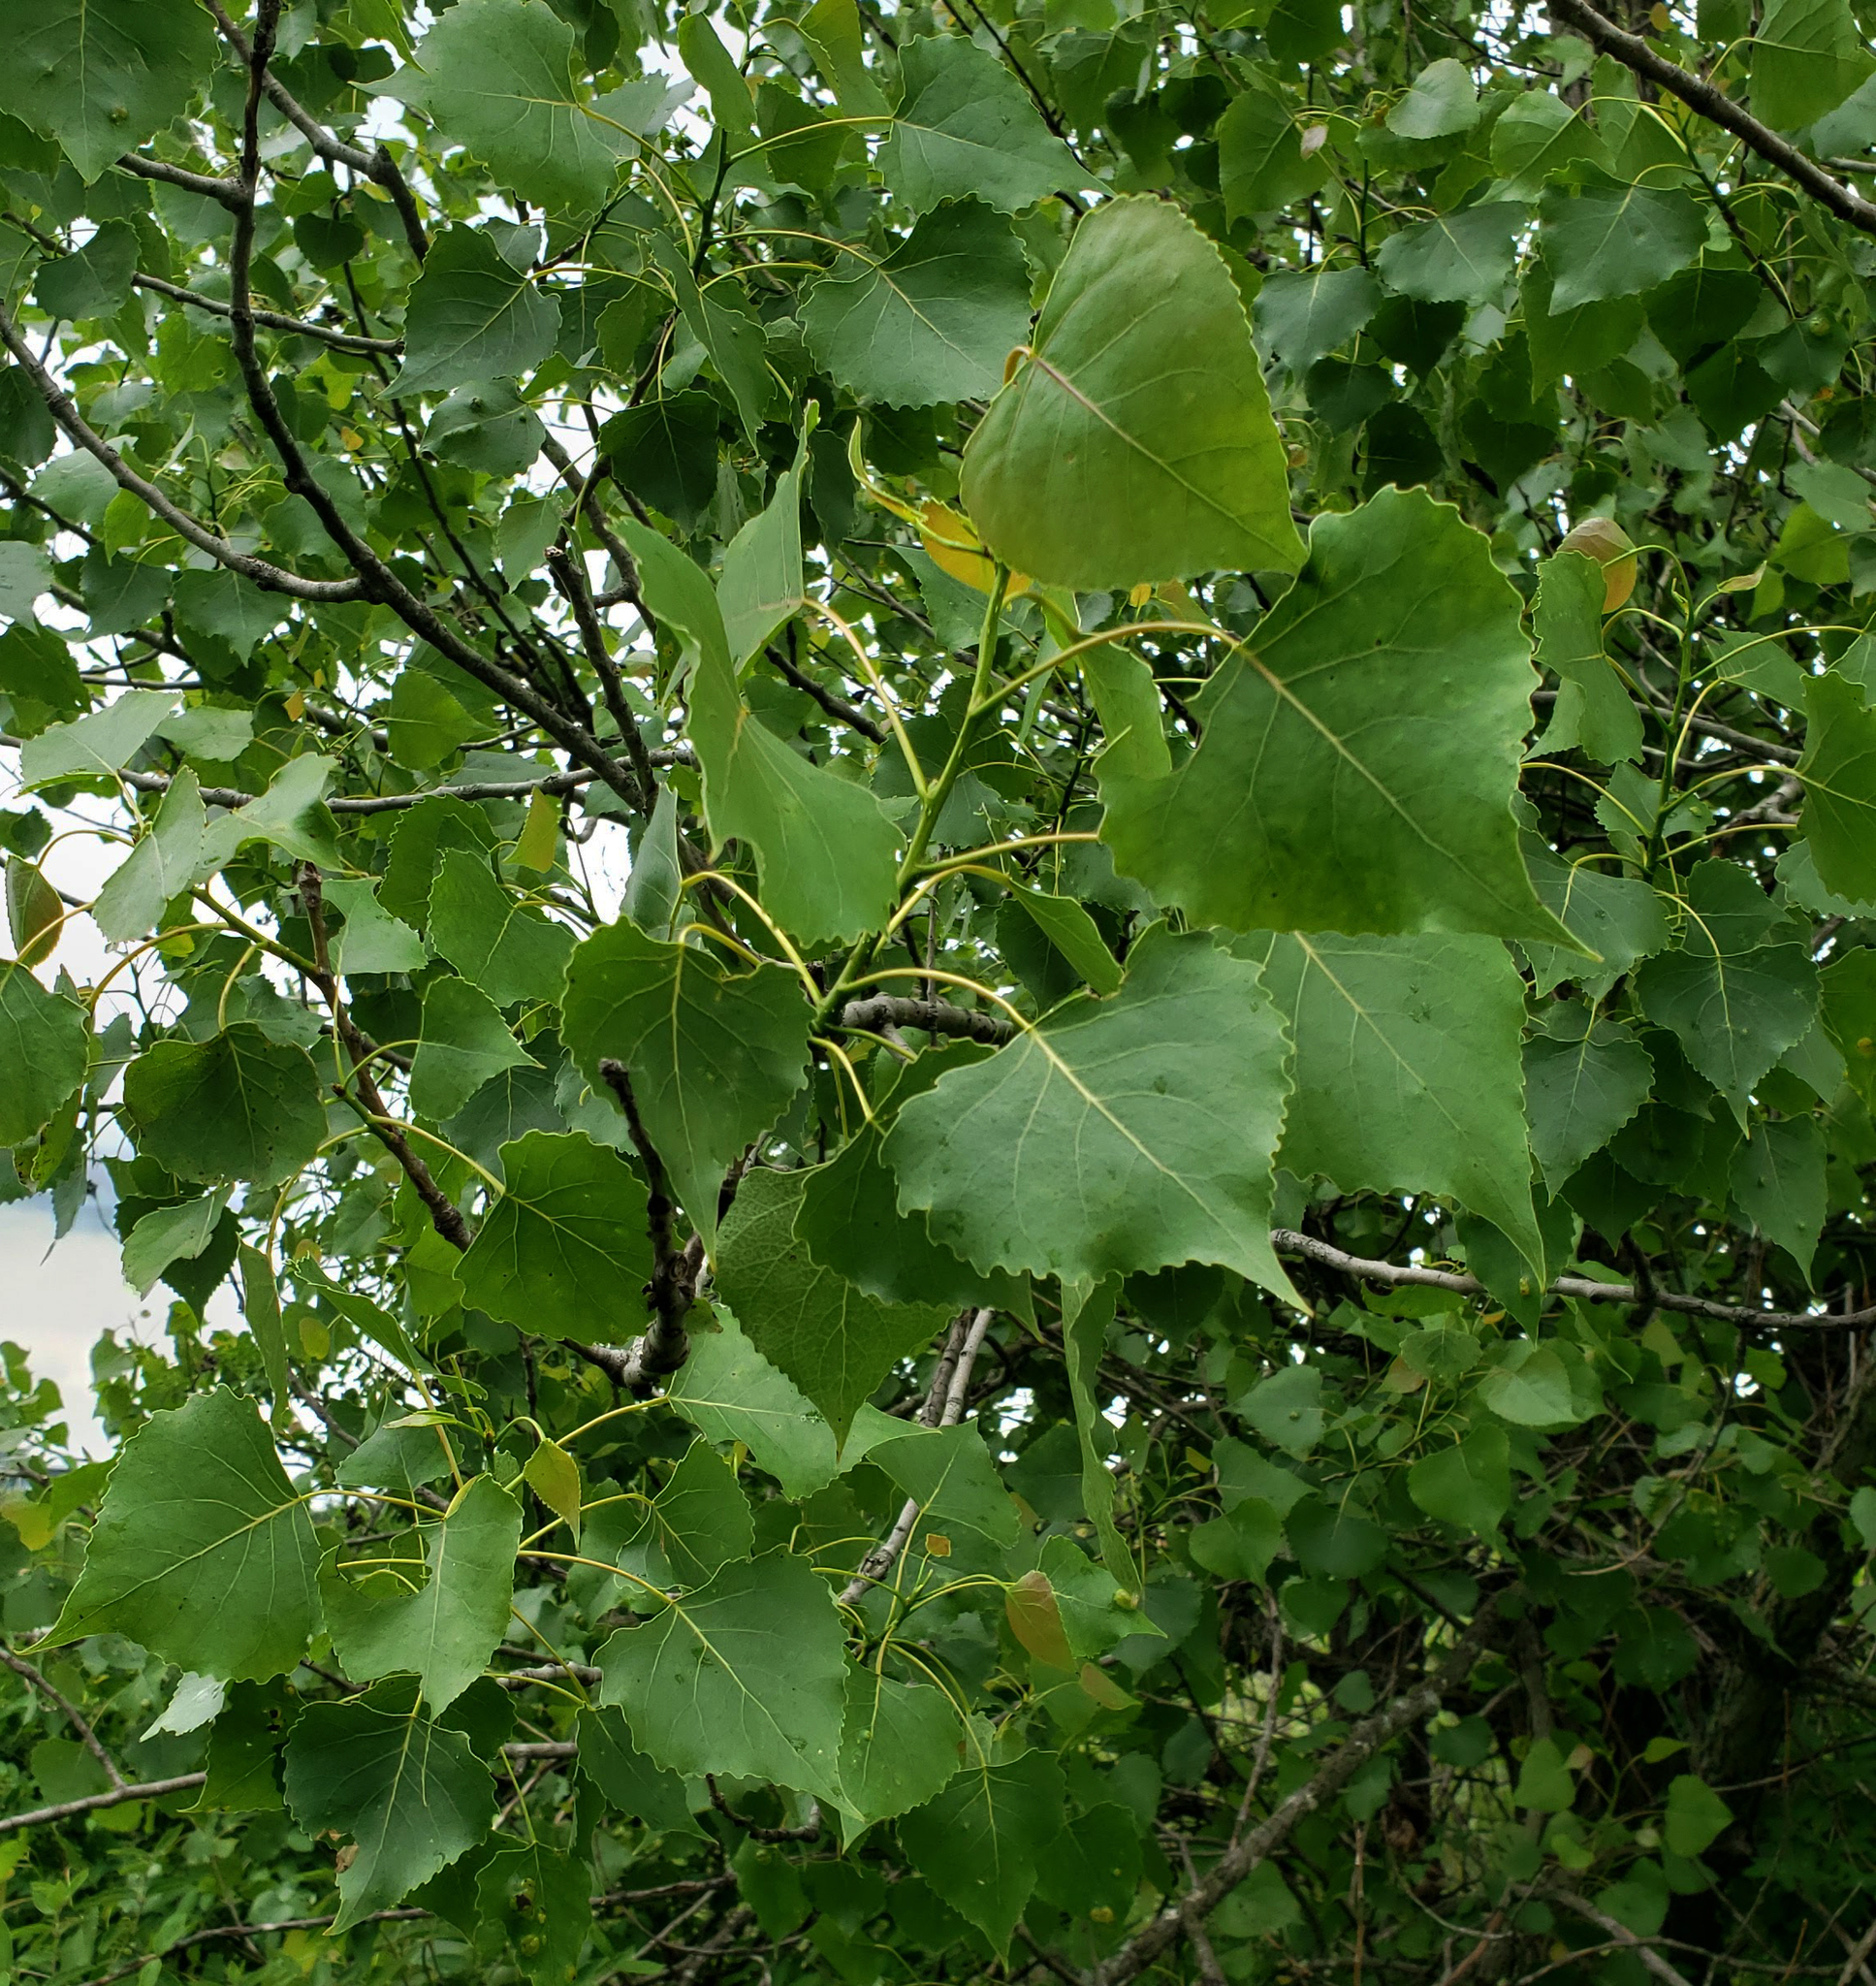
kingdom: Plantae
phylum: Tracheophyta
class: Magnoliopsida
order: Malpighiales
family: Salicaceae
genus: Populus
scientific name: Populus deltoides
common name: Eastern cottonwood
